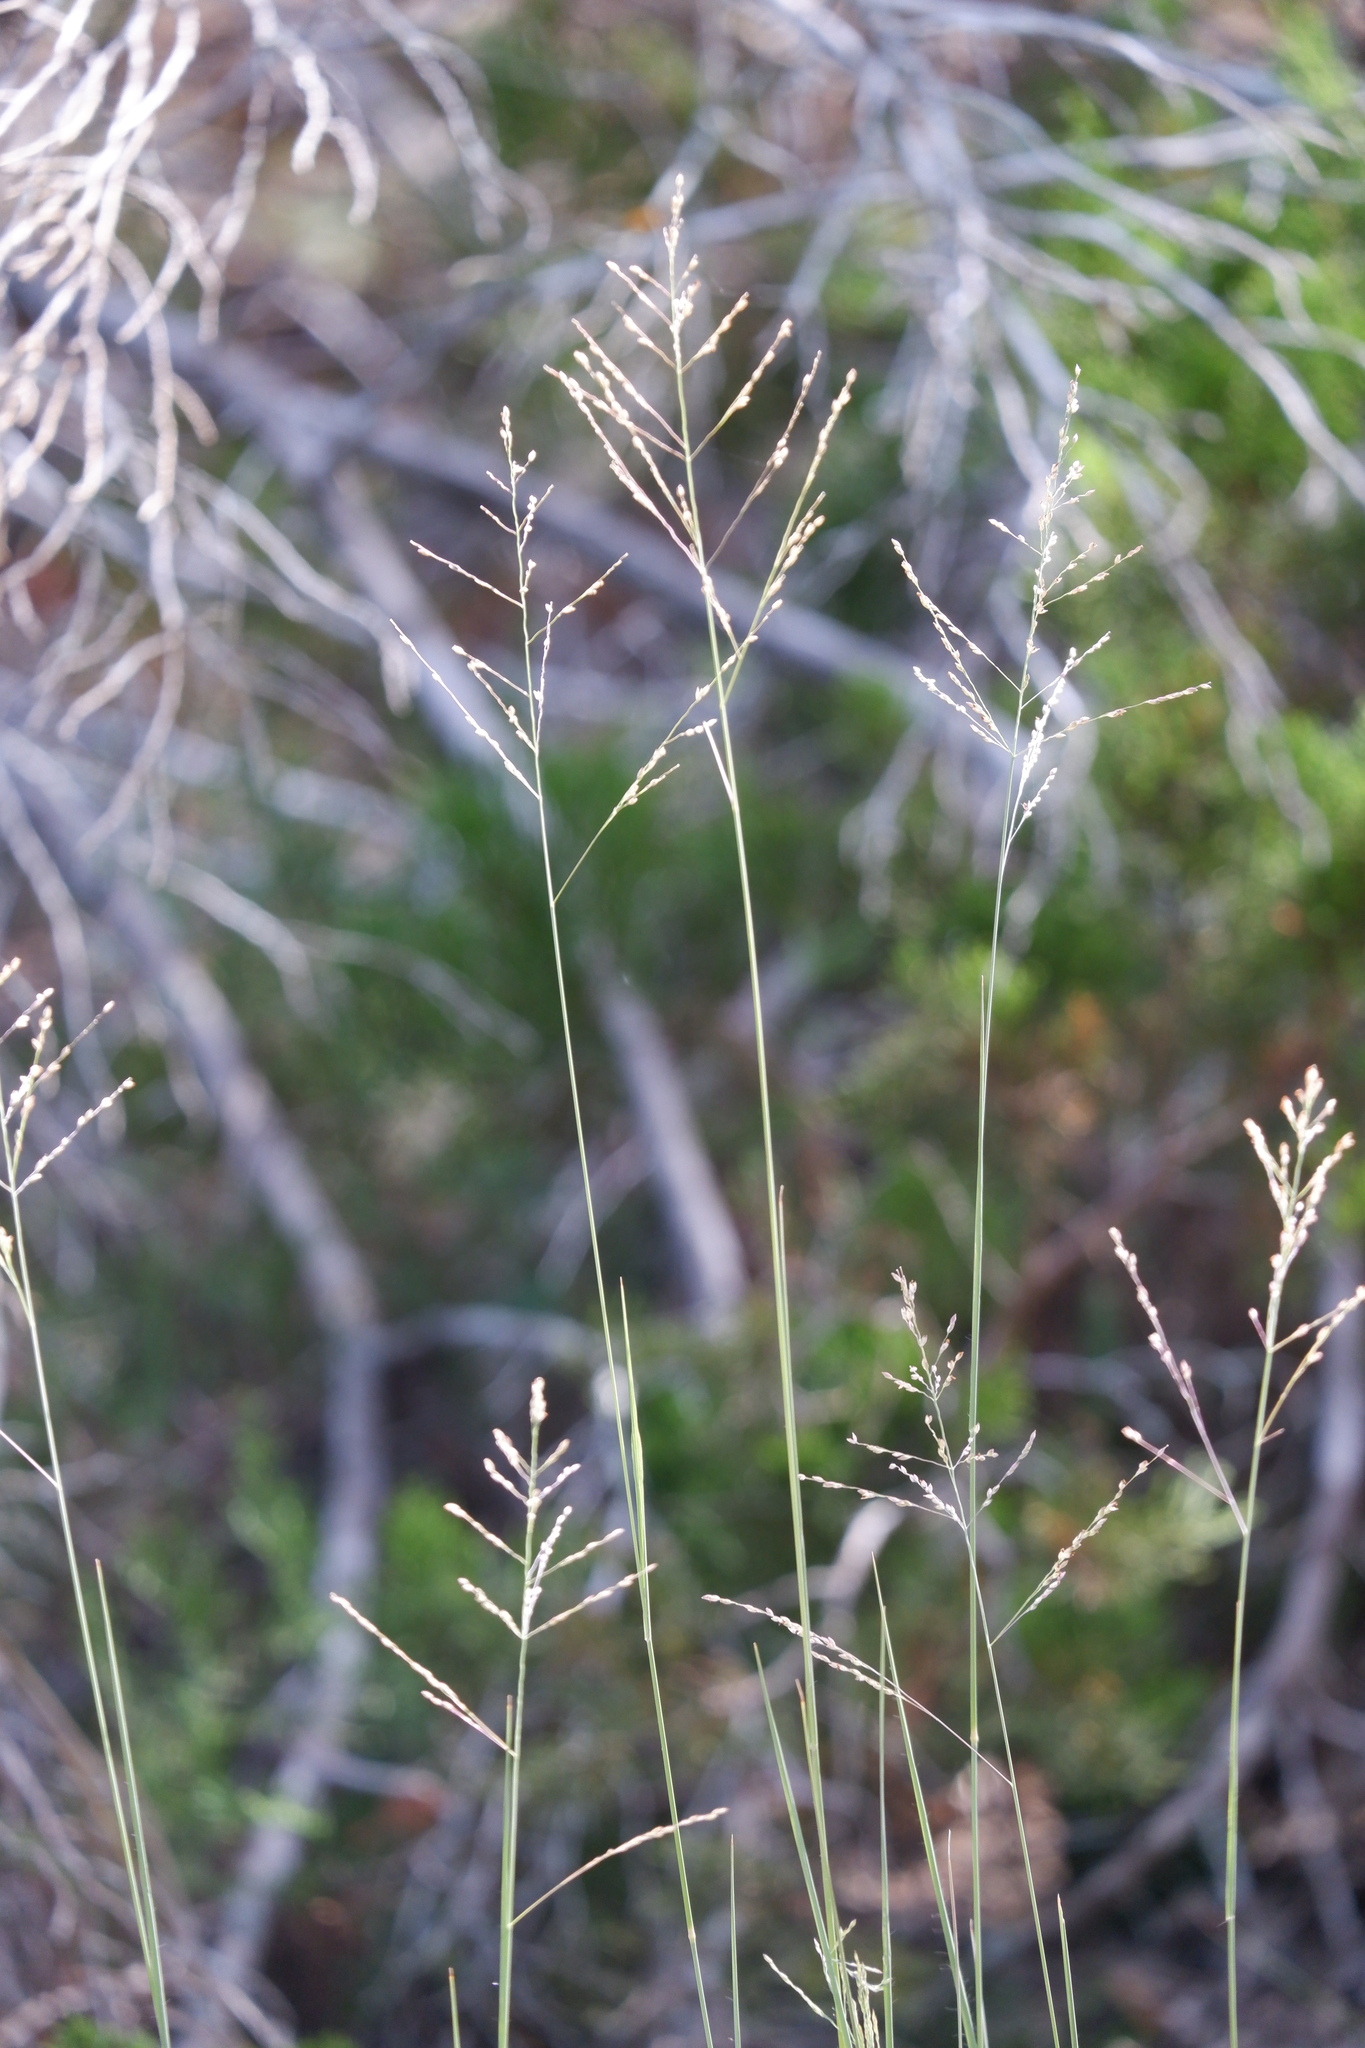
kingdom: Plantae
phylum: Tracheophyta
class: Liliopsida
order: Poales
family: Poaceae
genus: Panicum
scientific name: Panicum coloratum
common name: Kleingrass
